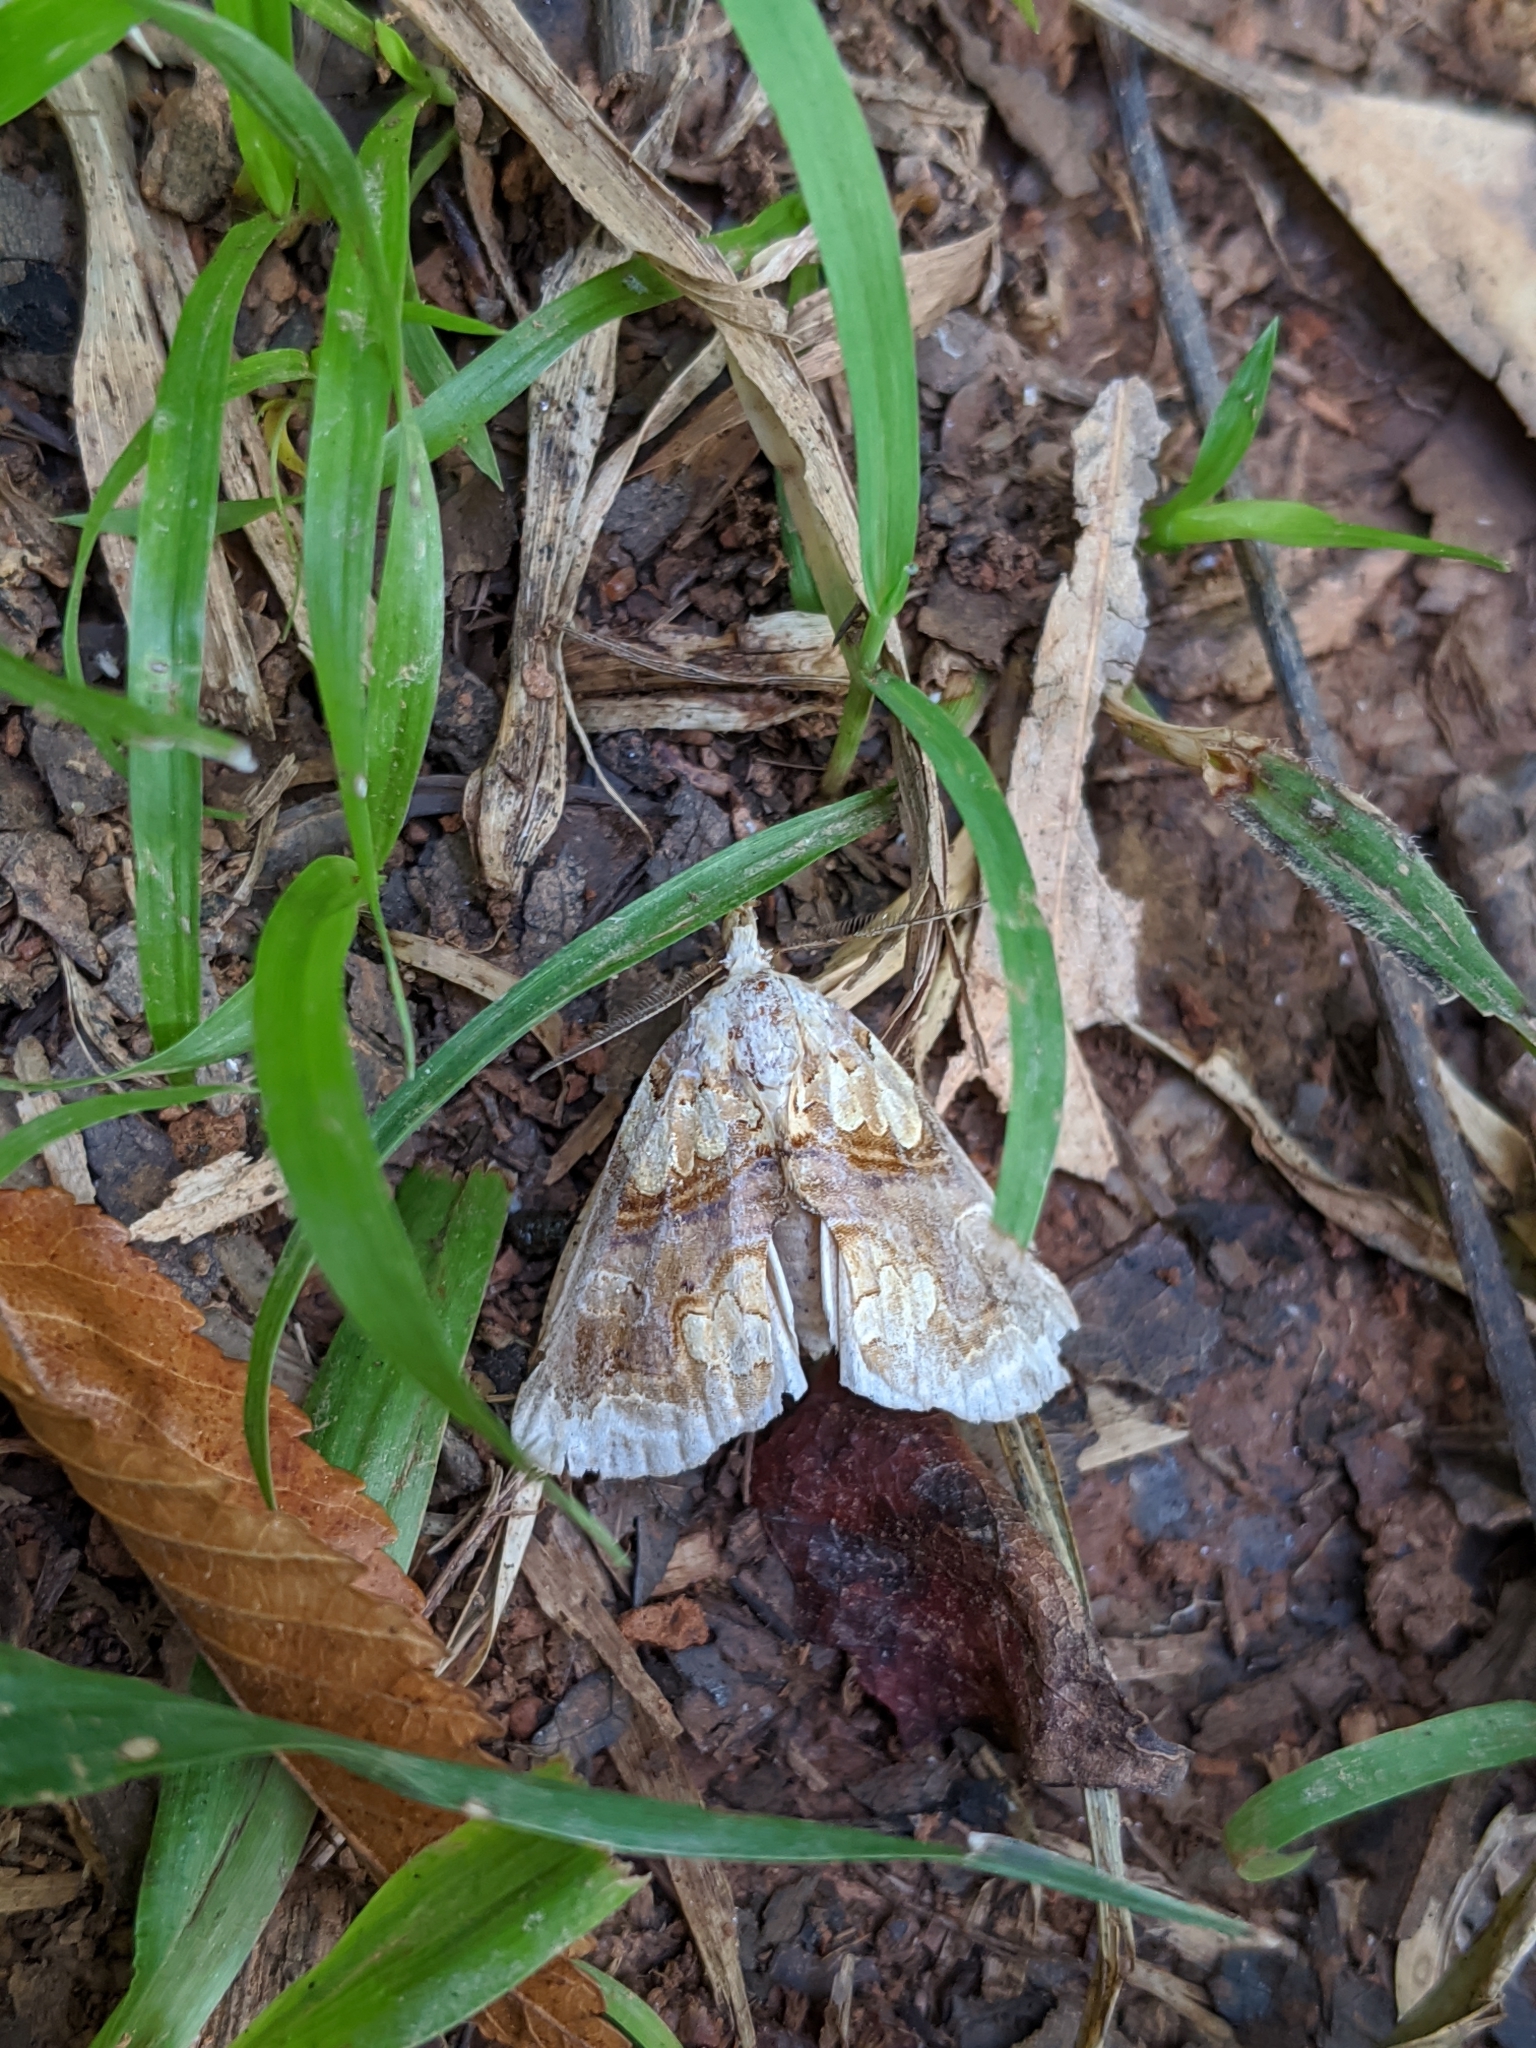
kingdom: Animalia
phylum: Arthropoda
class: Insecta
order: Lepidoptera
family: Erebidae
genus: Plusiodonta
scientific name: Plusiodonta compressipalpis
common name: Moonseed moth
